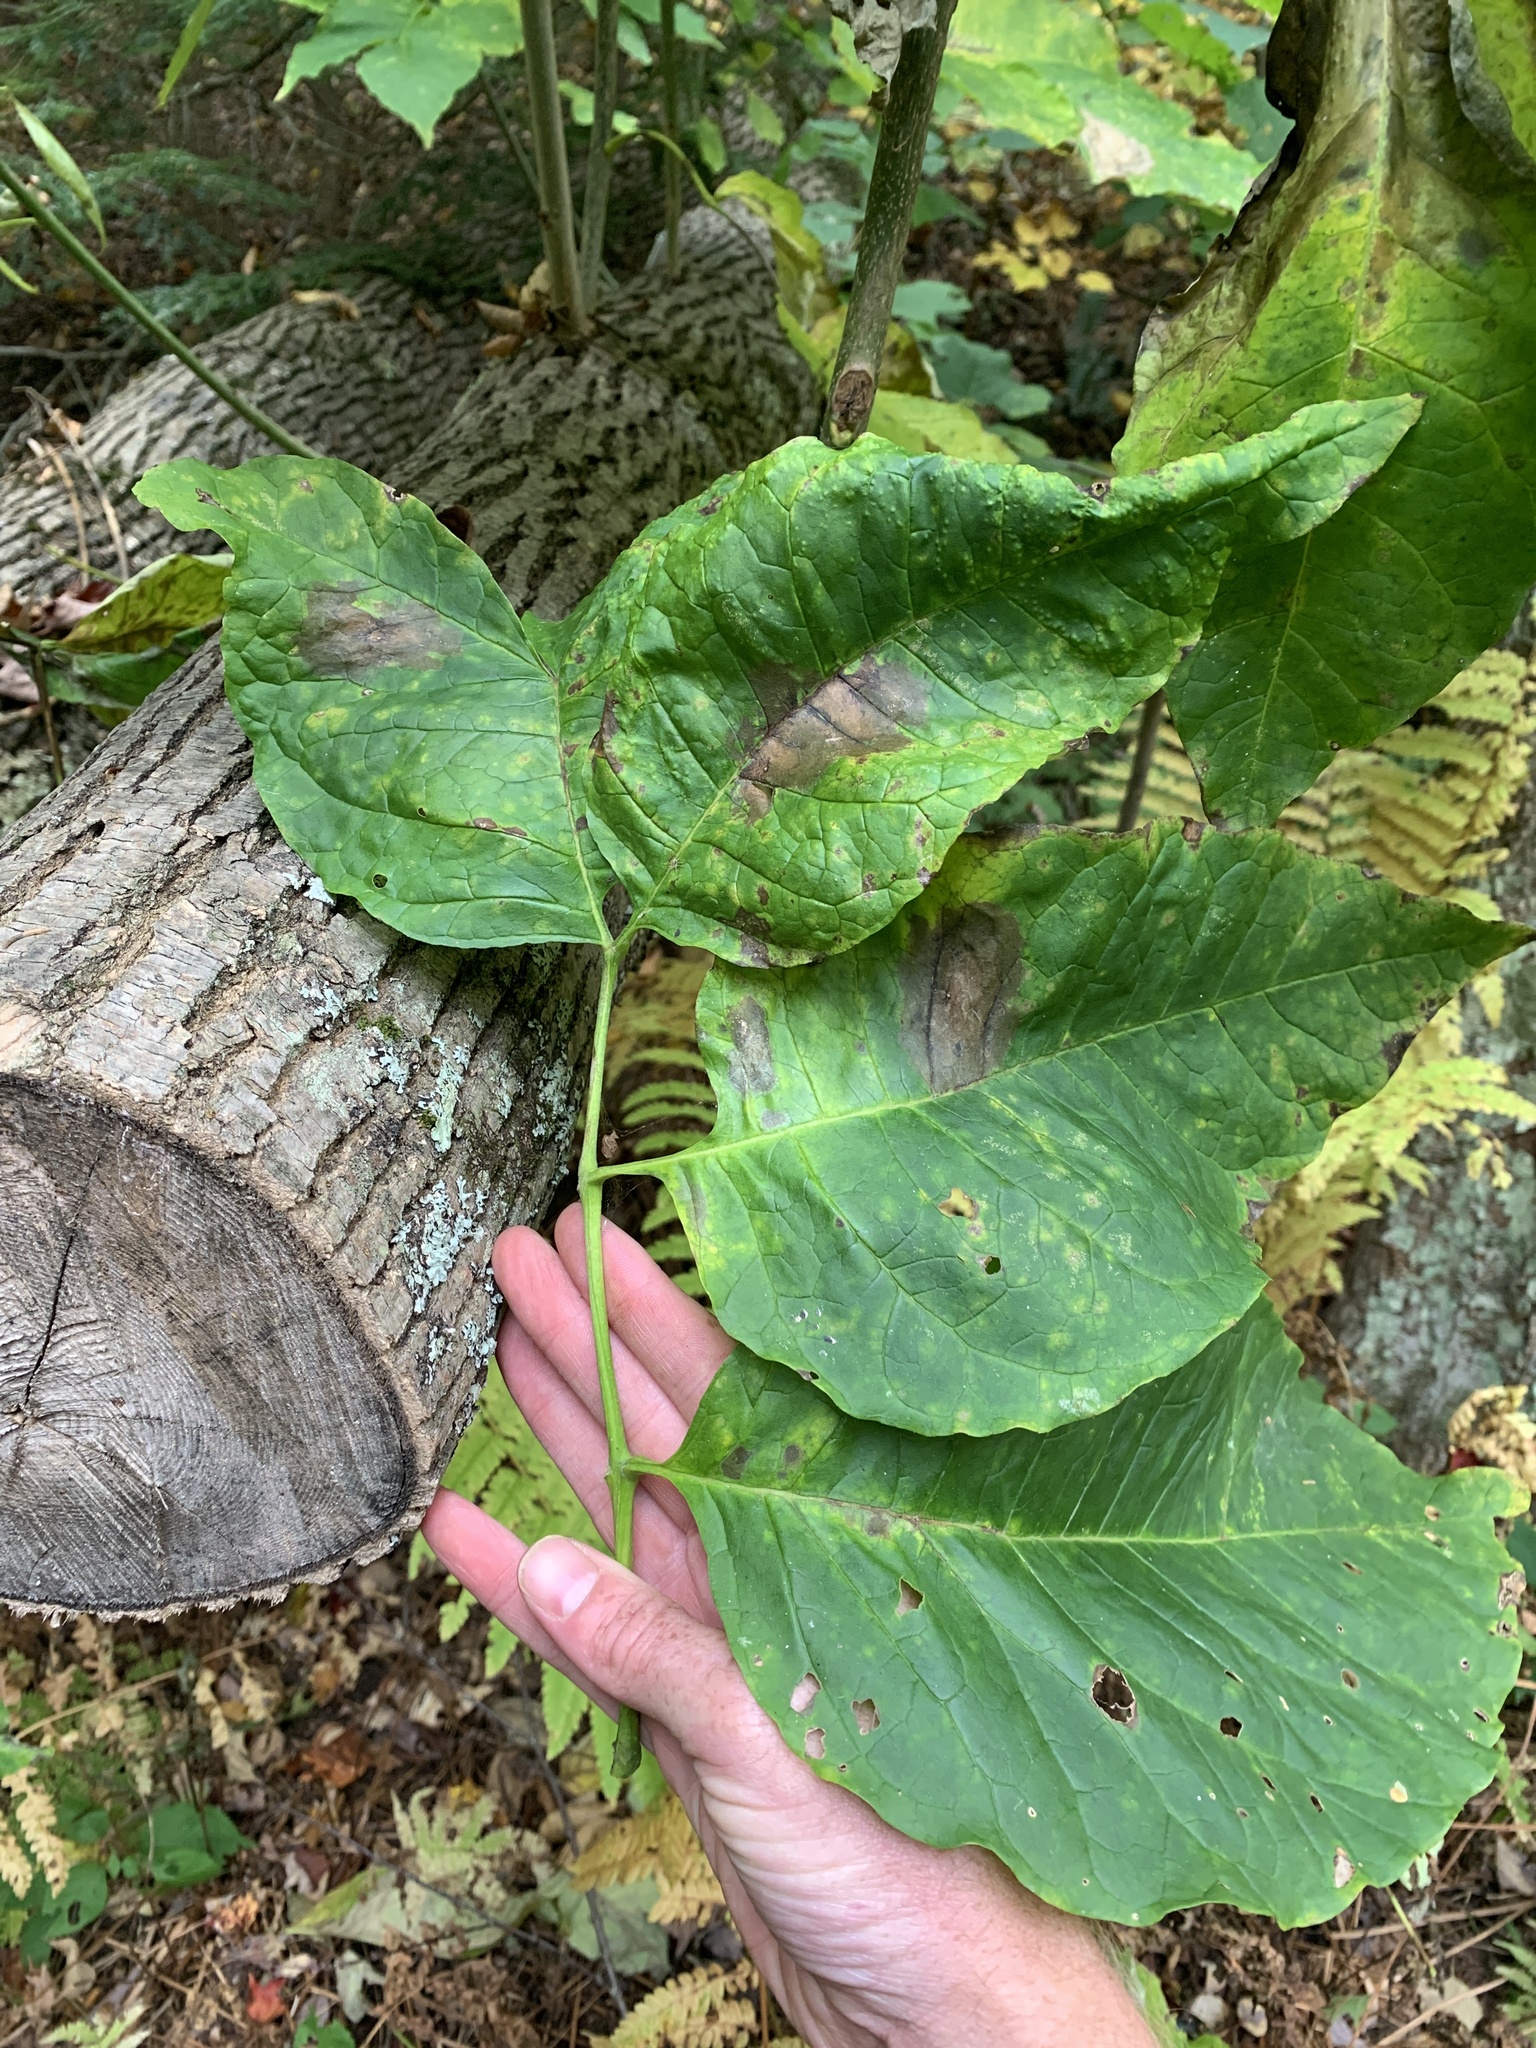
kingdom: Plantae
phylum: Tracheophyta
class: Magnoliopsida
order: Lamiales
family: Oleaceae
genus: Fraxinus
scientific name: Fraxinus americana
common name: White ash
